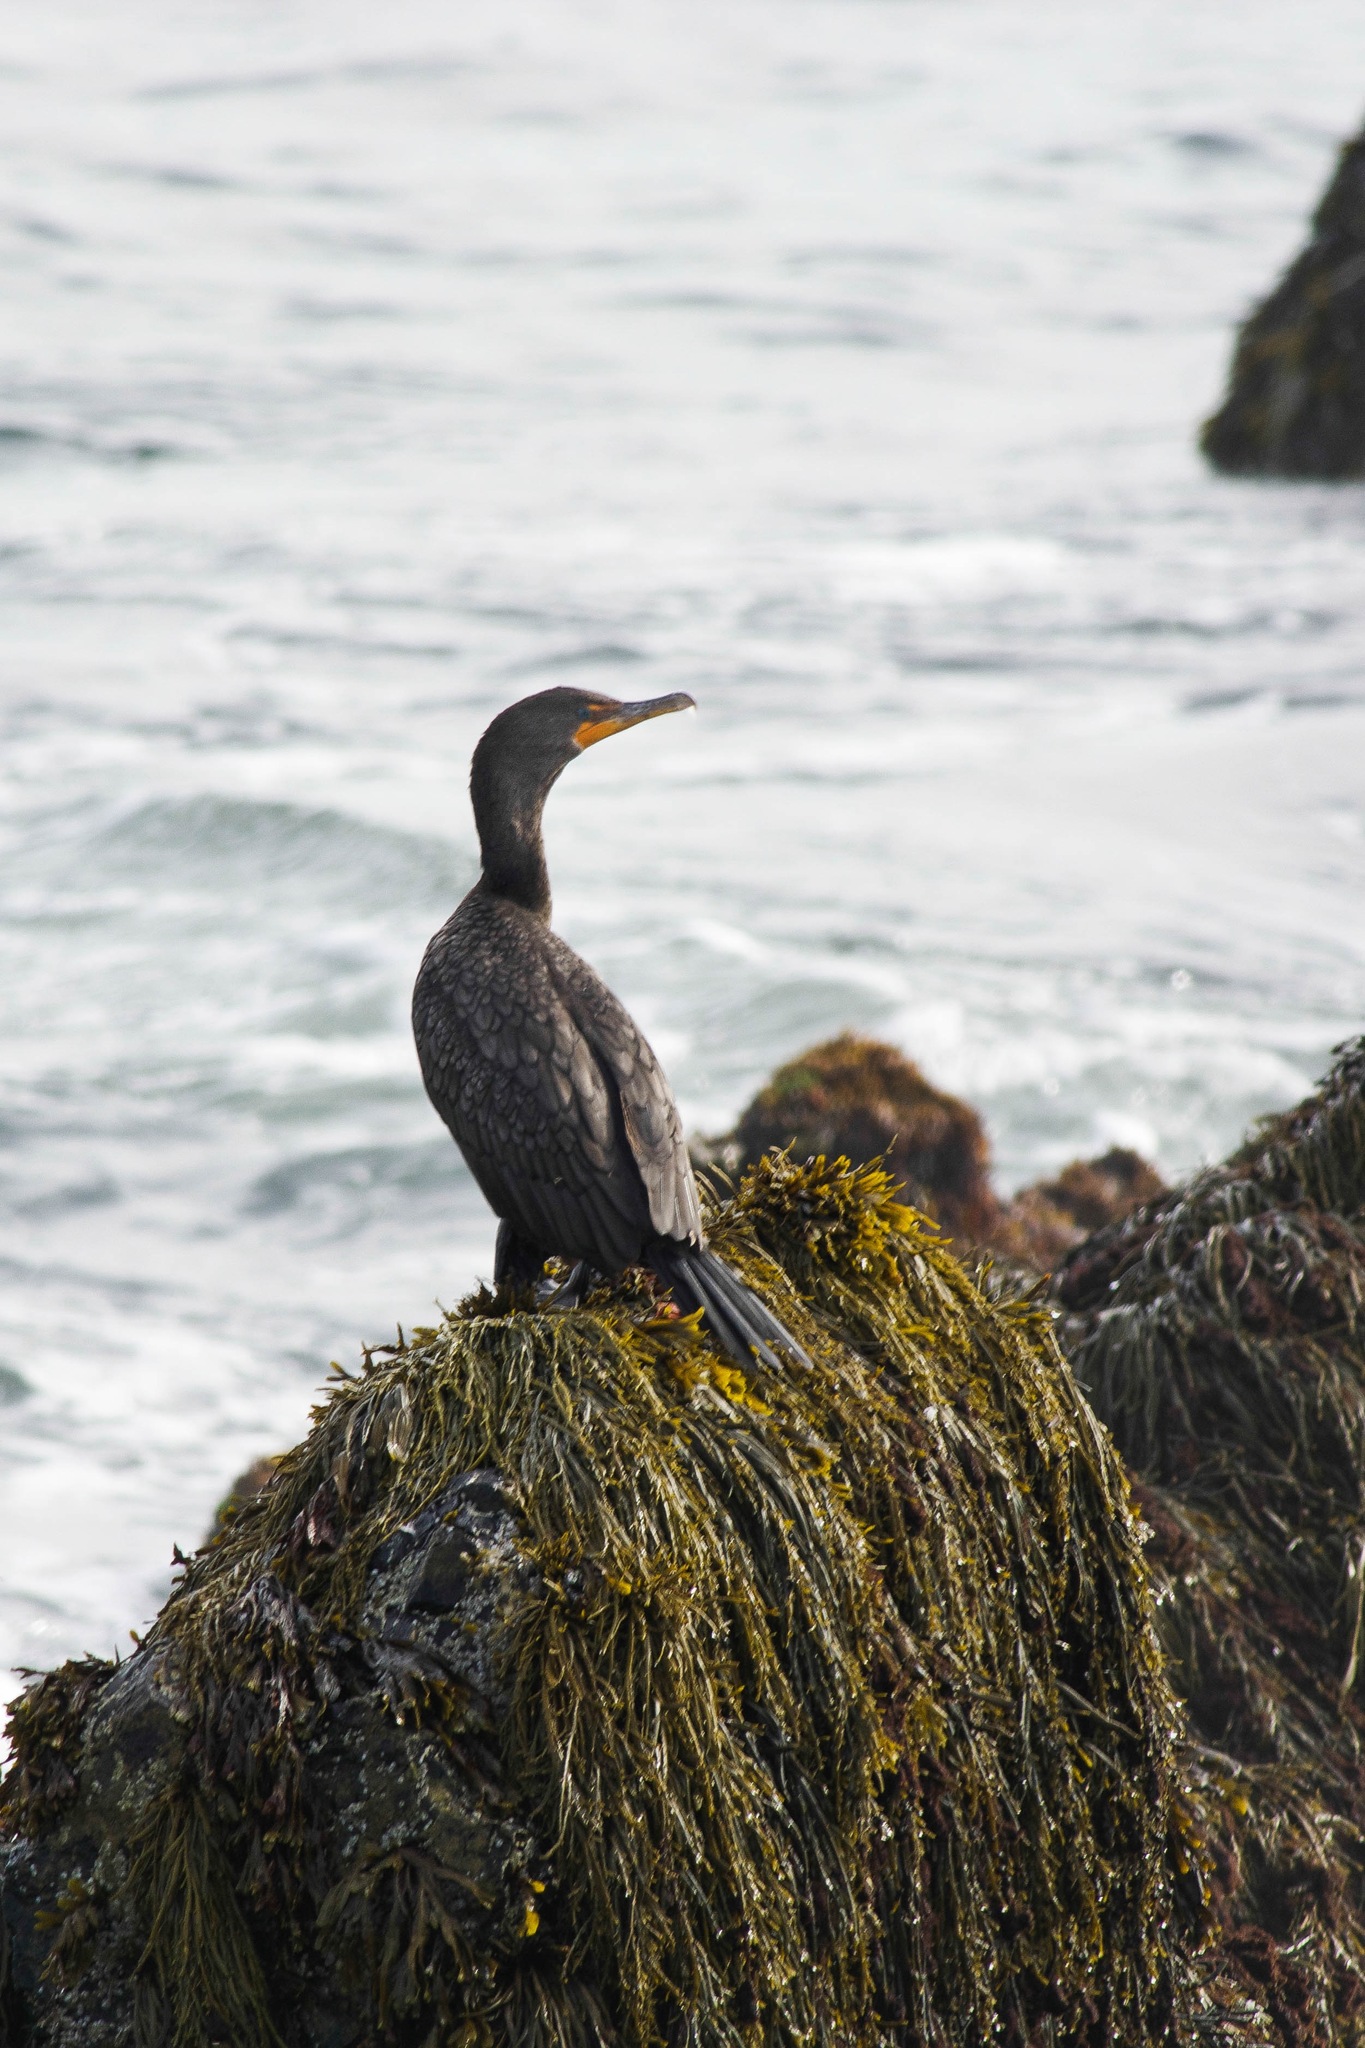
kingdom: Animalia
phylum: Chordata
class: Aves
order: Suliformes
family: Phalacrocoracidae
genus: Phalacrocorax
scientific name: Phalacrocorax auritus
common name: Double-crested cormorant
